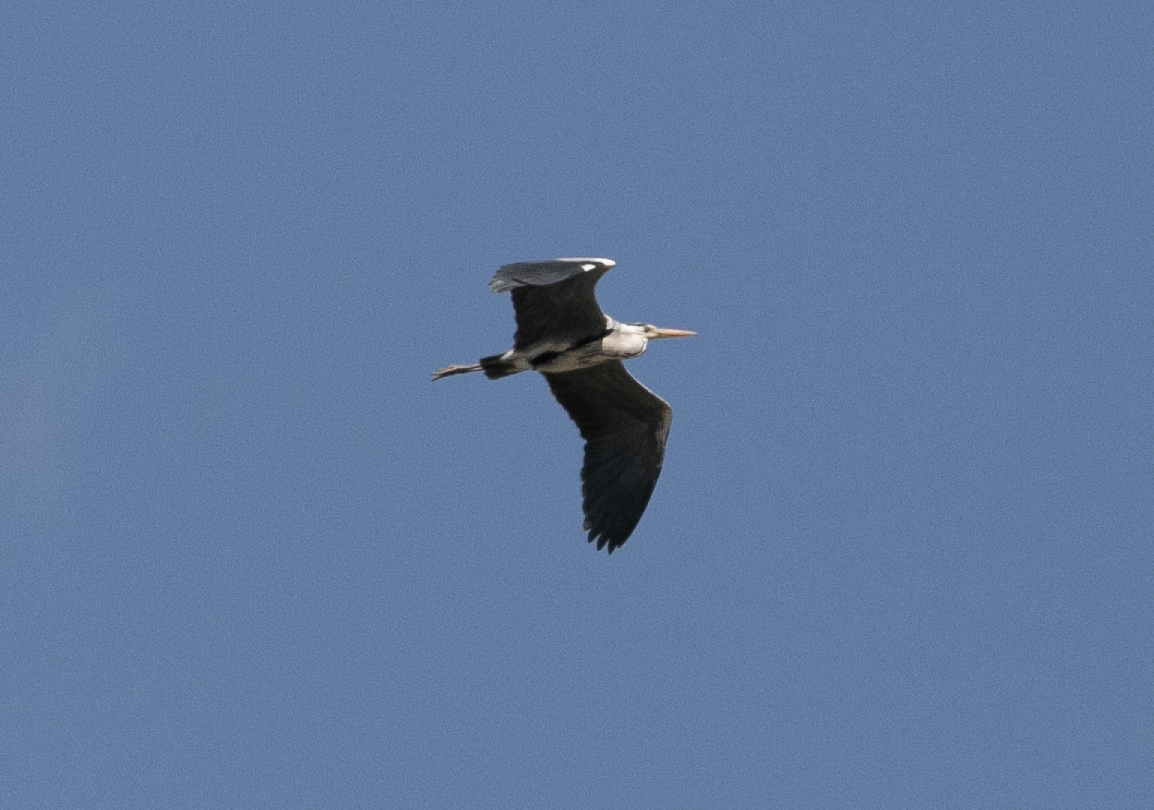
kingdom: Animalia
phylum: Chordata
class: Aves
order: Pelecaniformes
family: Ardeidae
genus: Ardea
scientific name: Ardea cinerea
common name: Grey heron
